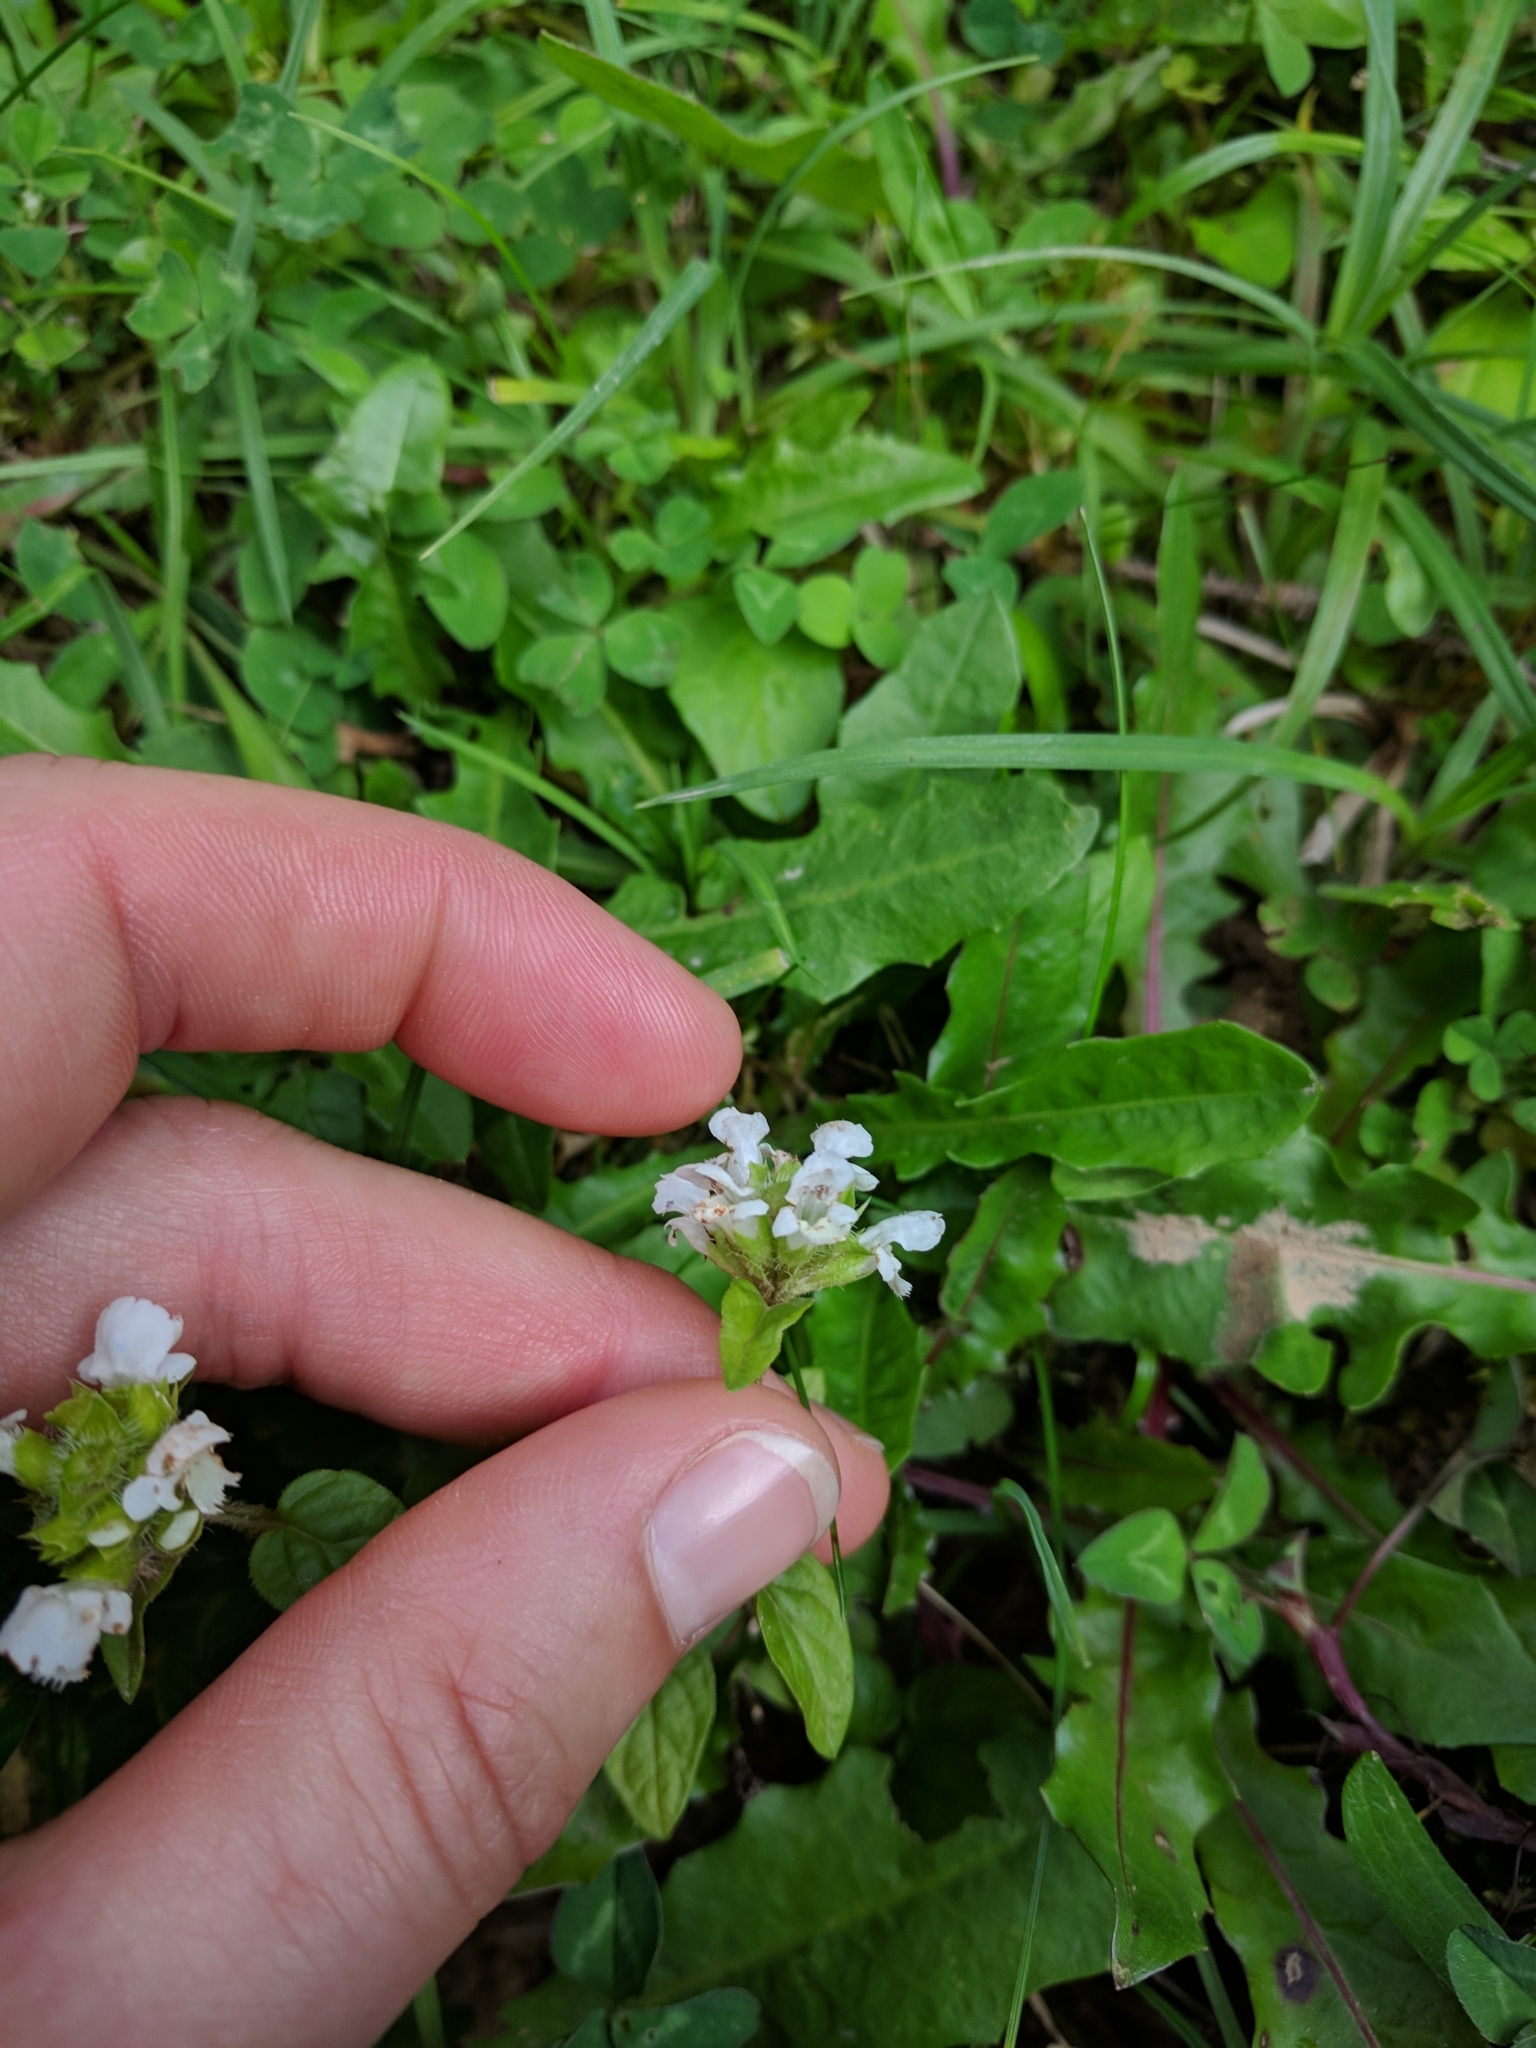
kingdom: Plantae
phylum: Tracheophyta
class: Magnoliopsida
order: Lamiales
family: Lamiaceae
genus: Prunella
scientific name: Prunella vulgaris
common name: Heal-all
